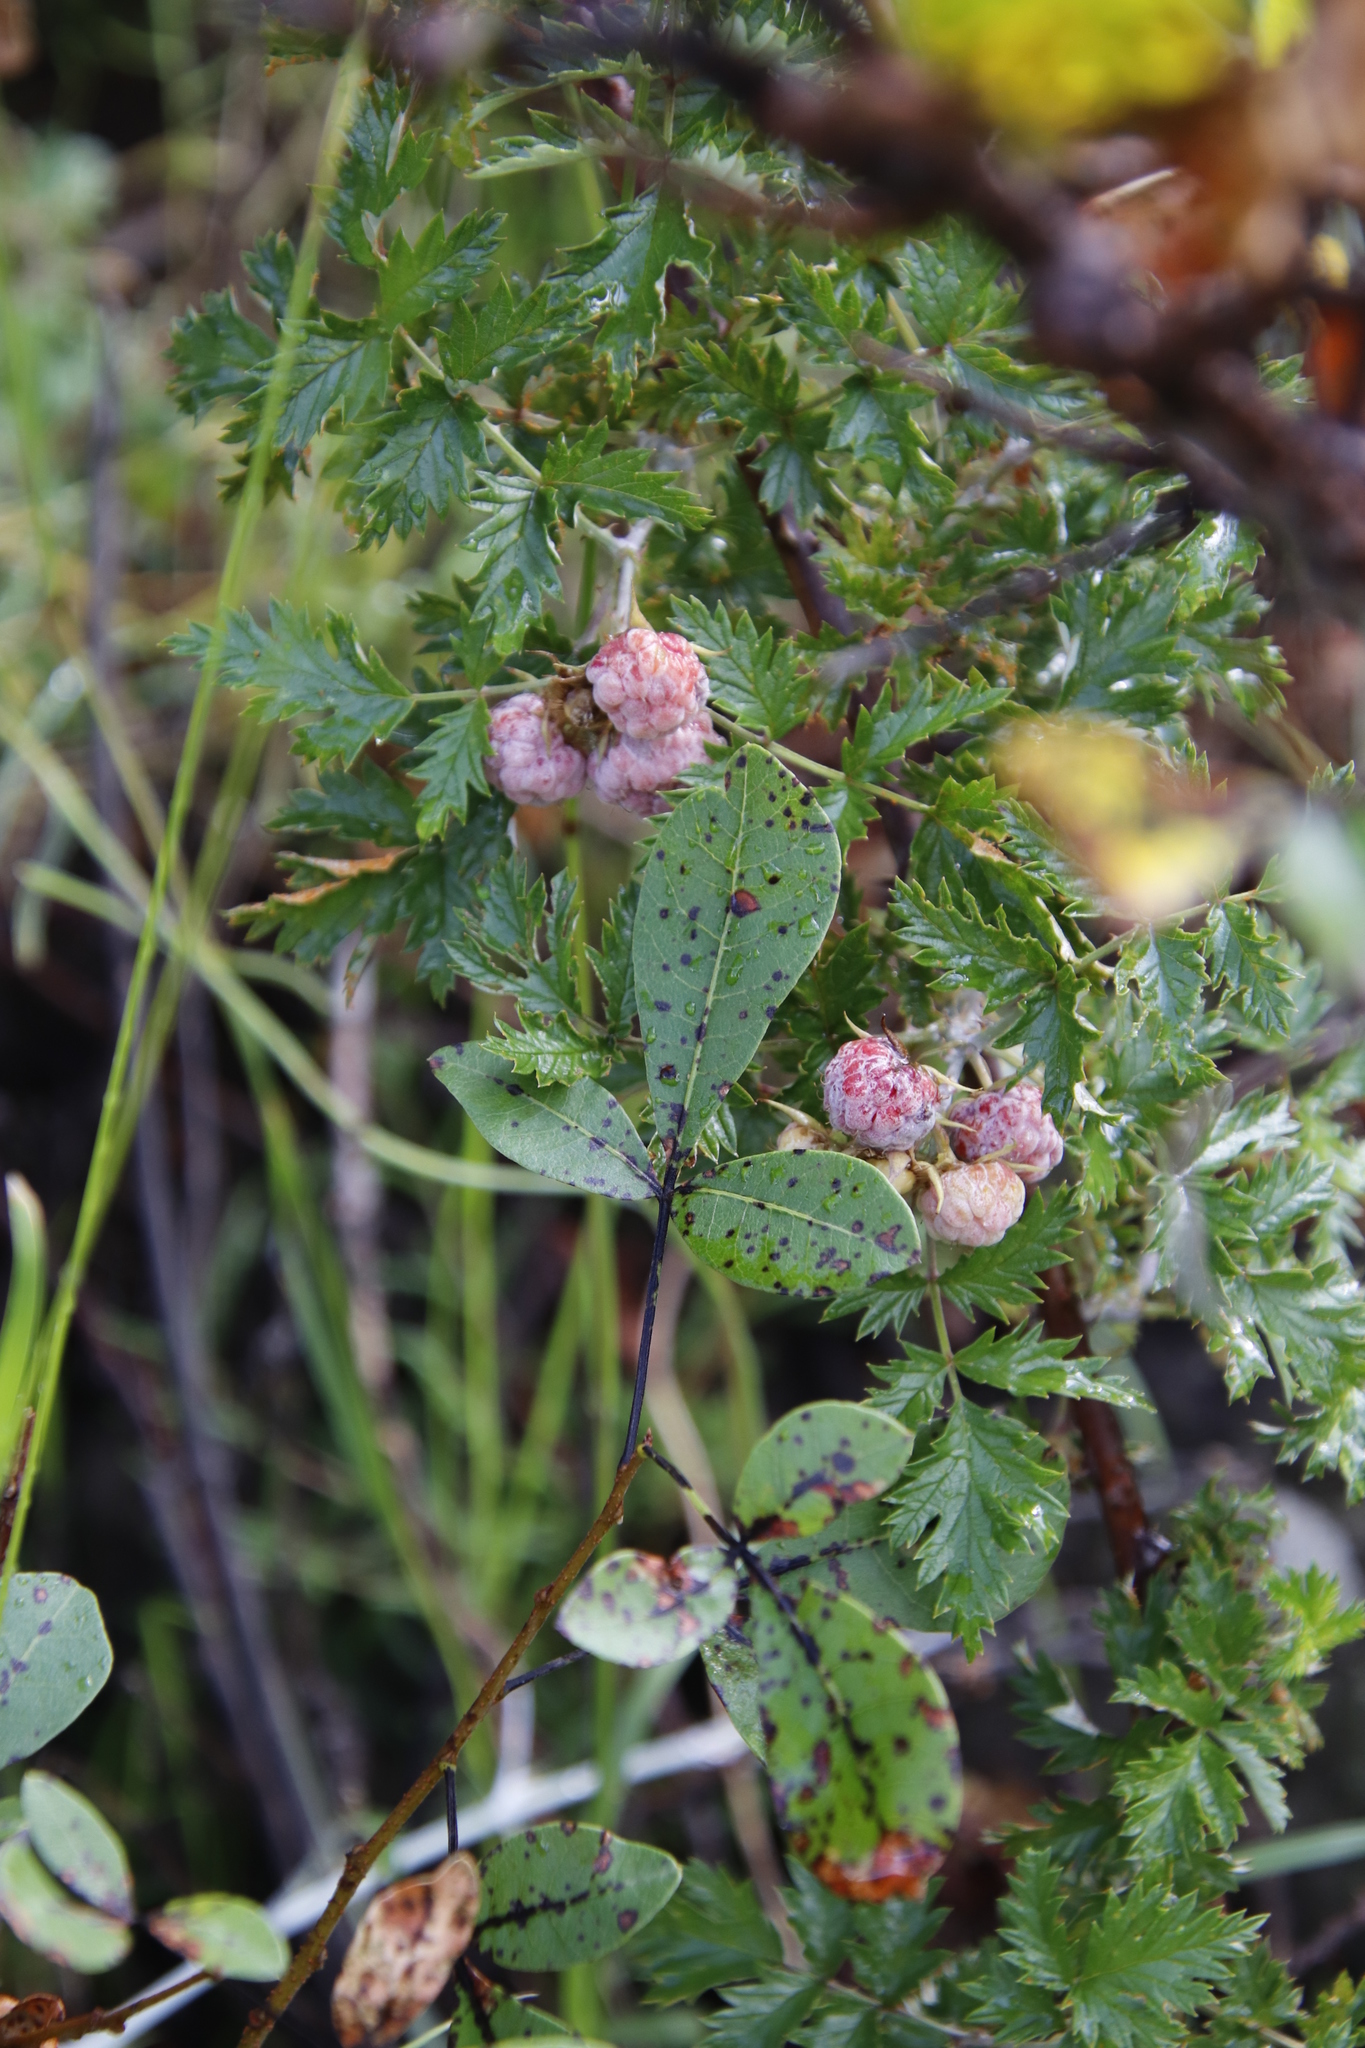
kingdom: Plantae
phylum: Tracheophyta
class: Magnoliopsida
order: Rosales
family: Rosaceae
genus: Rubus
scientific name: Rubus ludwigii
